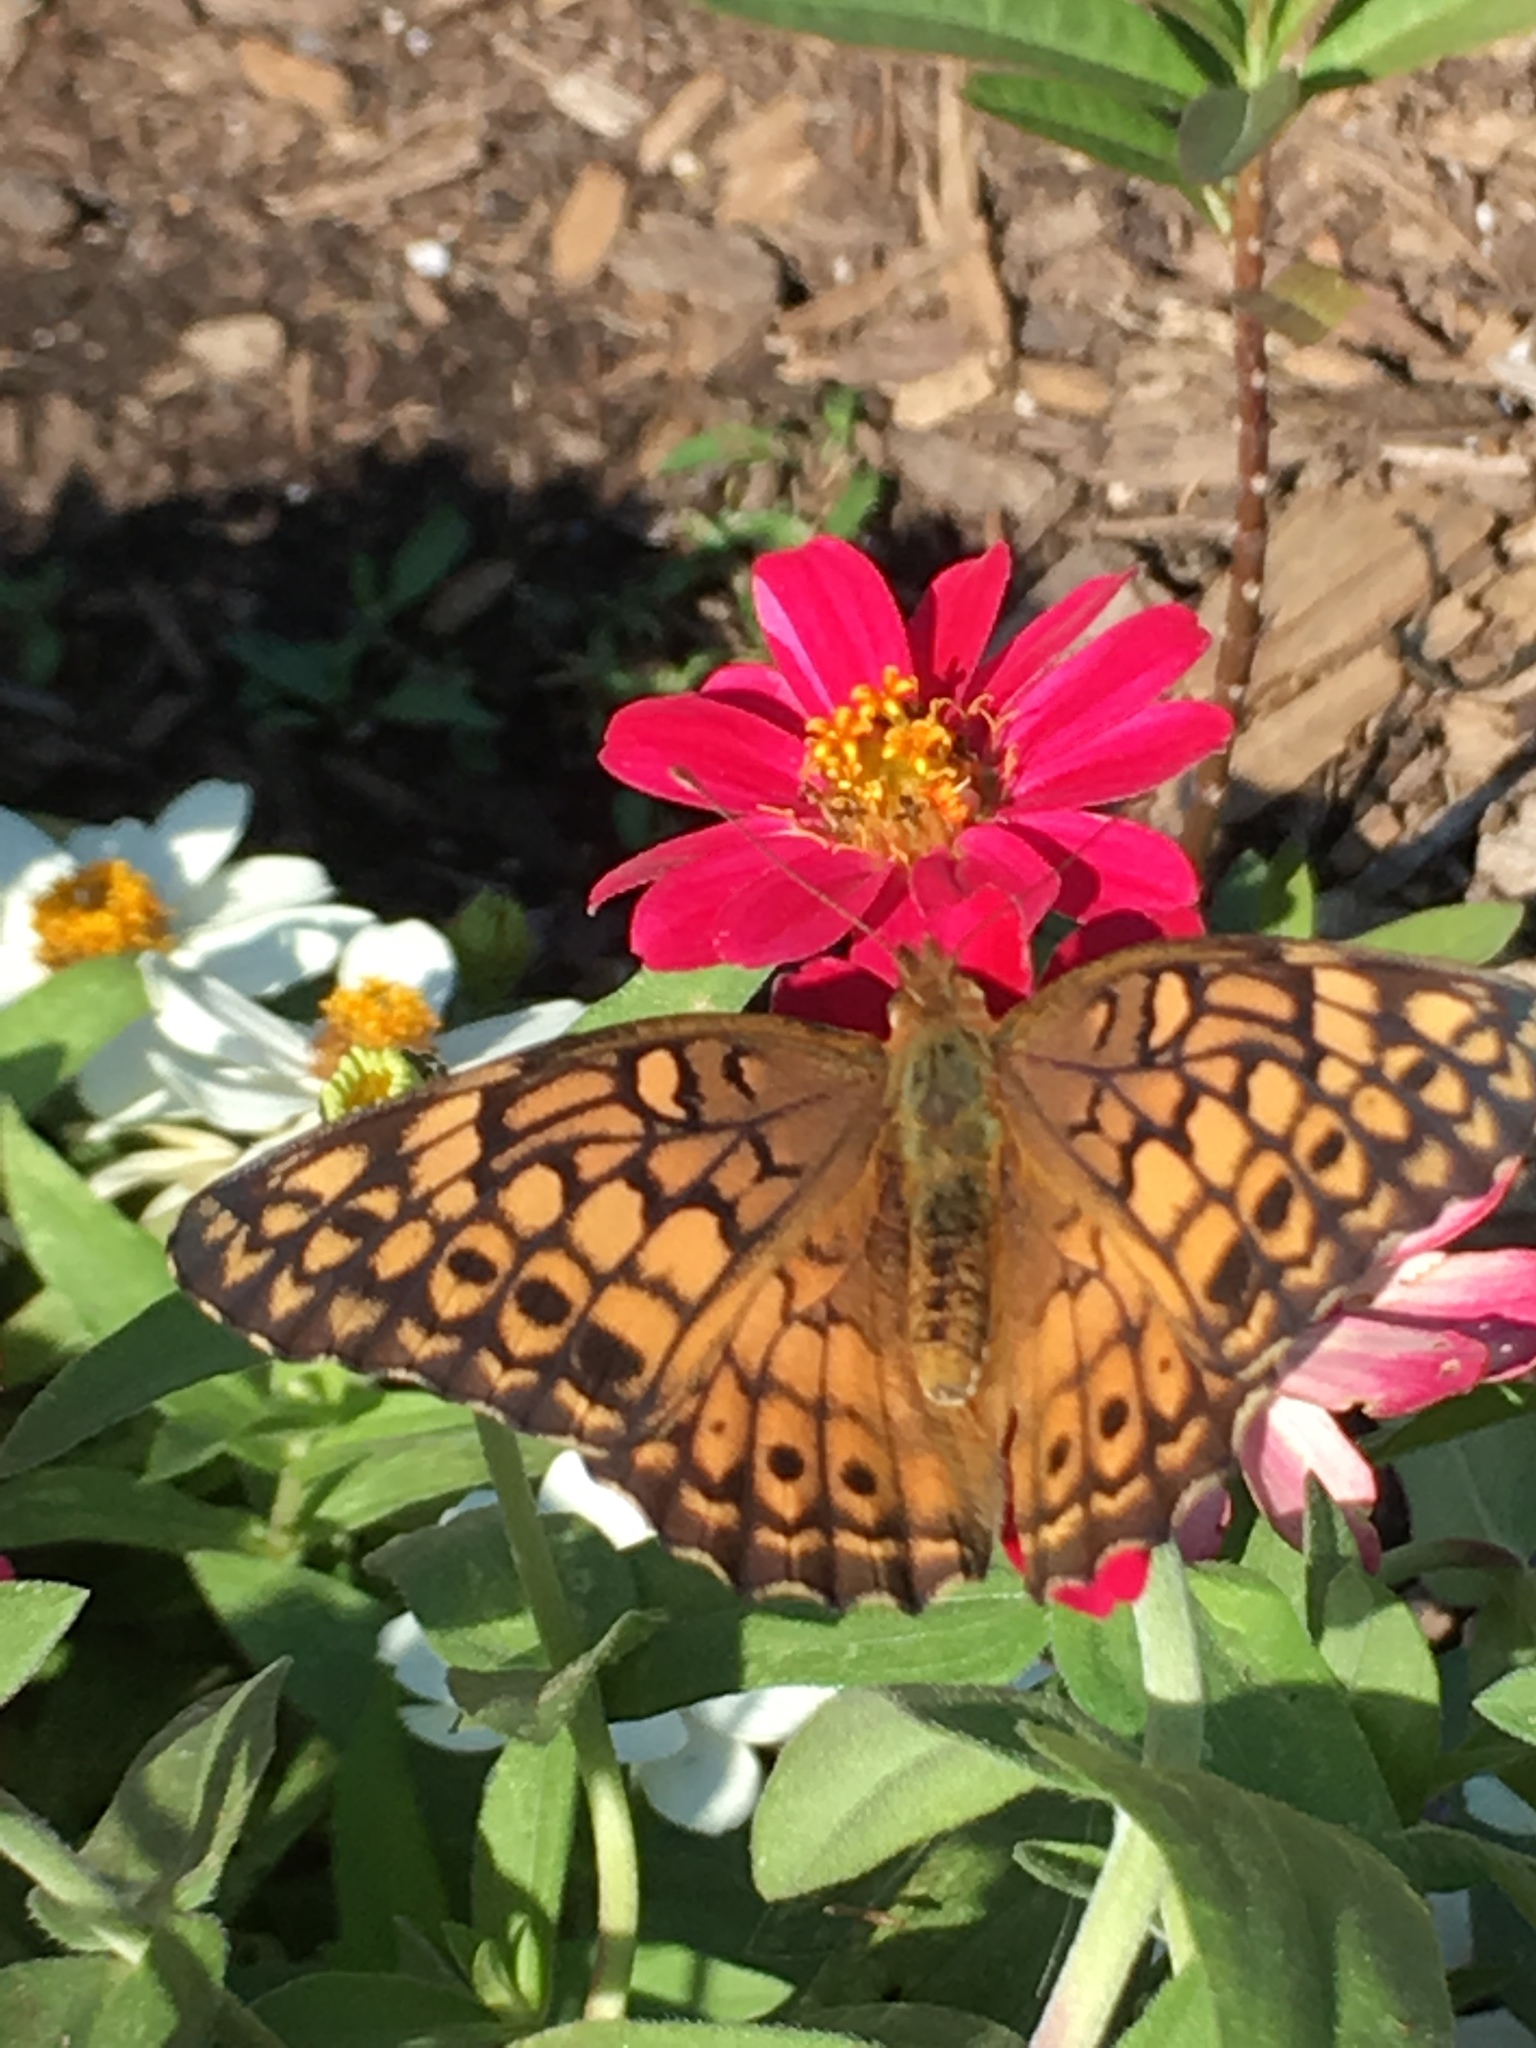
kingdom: Animalia
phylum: Arthropoda
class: Insecta
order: Lepidoptera
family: Nymphalidae
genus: Euptoieta
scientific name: Euptoieta claudia
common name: Variegated fritillary
